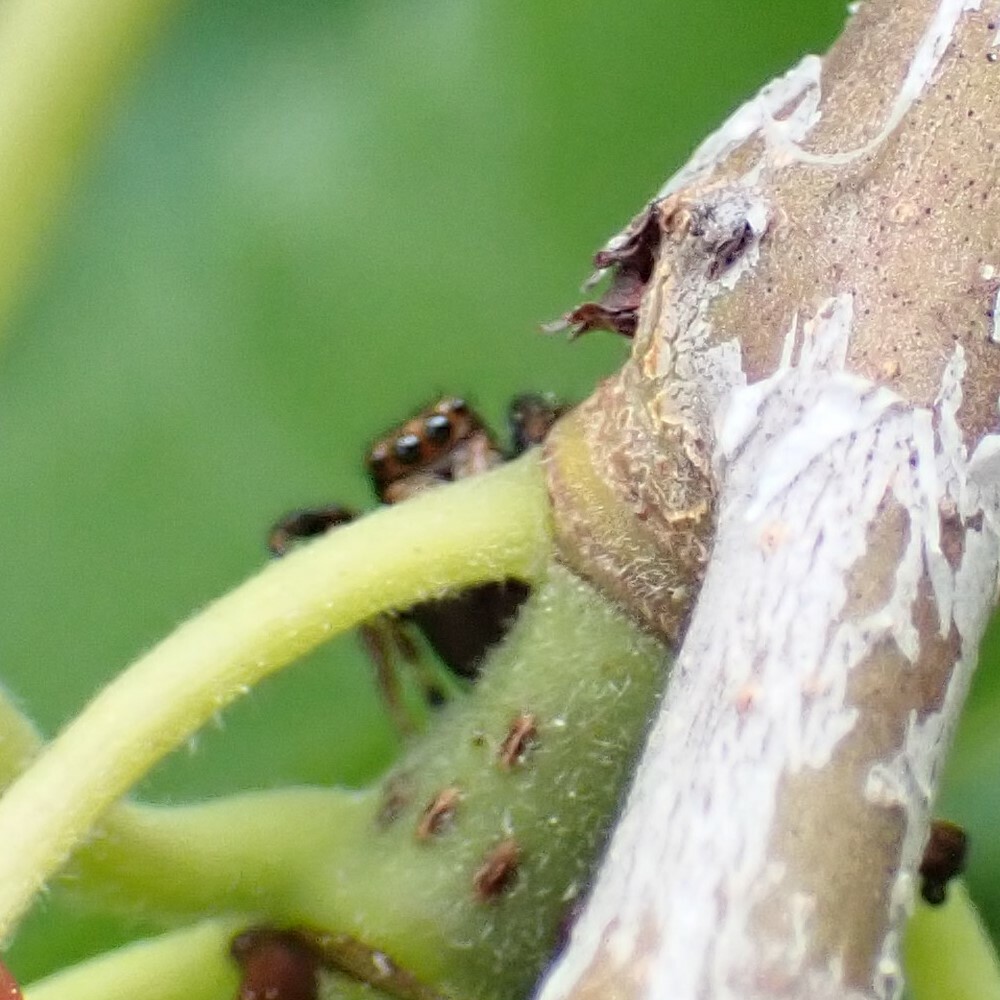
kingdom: Animalia
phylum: Arthropoda
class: Arachnida
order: Araneae
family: Salticidae
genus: Paraphidippus
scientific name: Paraphidippus aurantius
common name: Jumping spiders
